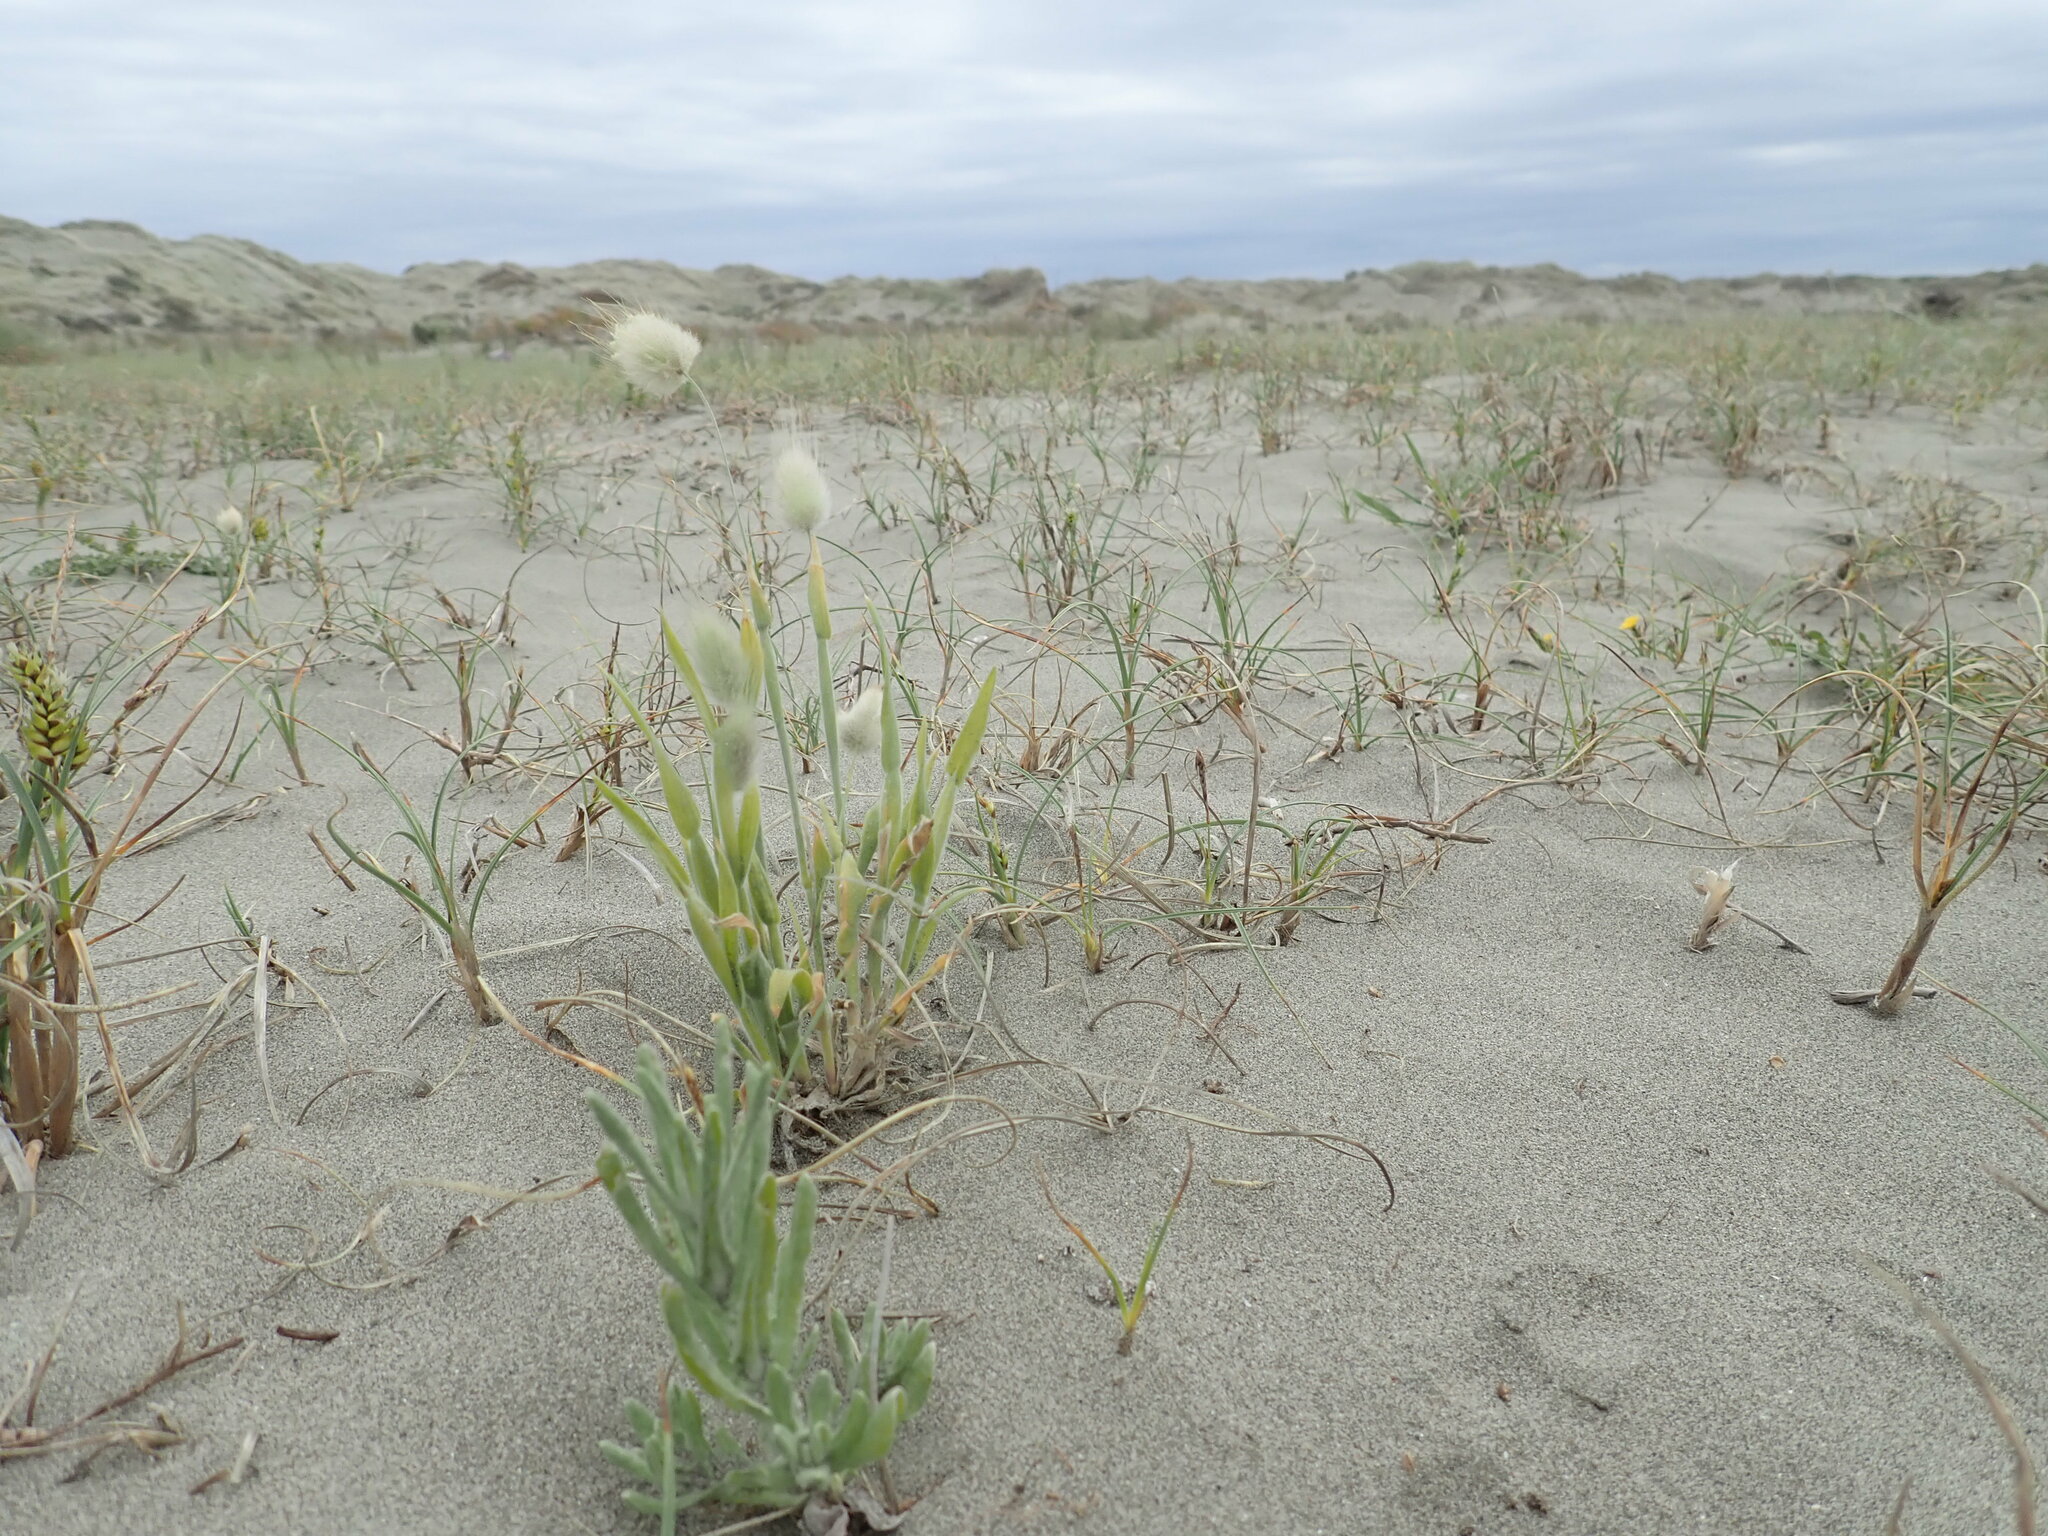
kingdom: Plantae
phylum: Tracheophyta
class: Liliopsida
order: Poales
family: Poaceae
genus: Lagurus
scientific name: Lagurus ovatus
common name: Hare's-tail
